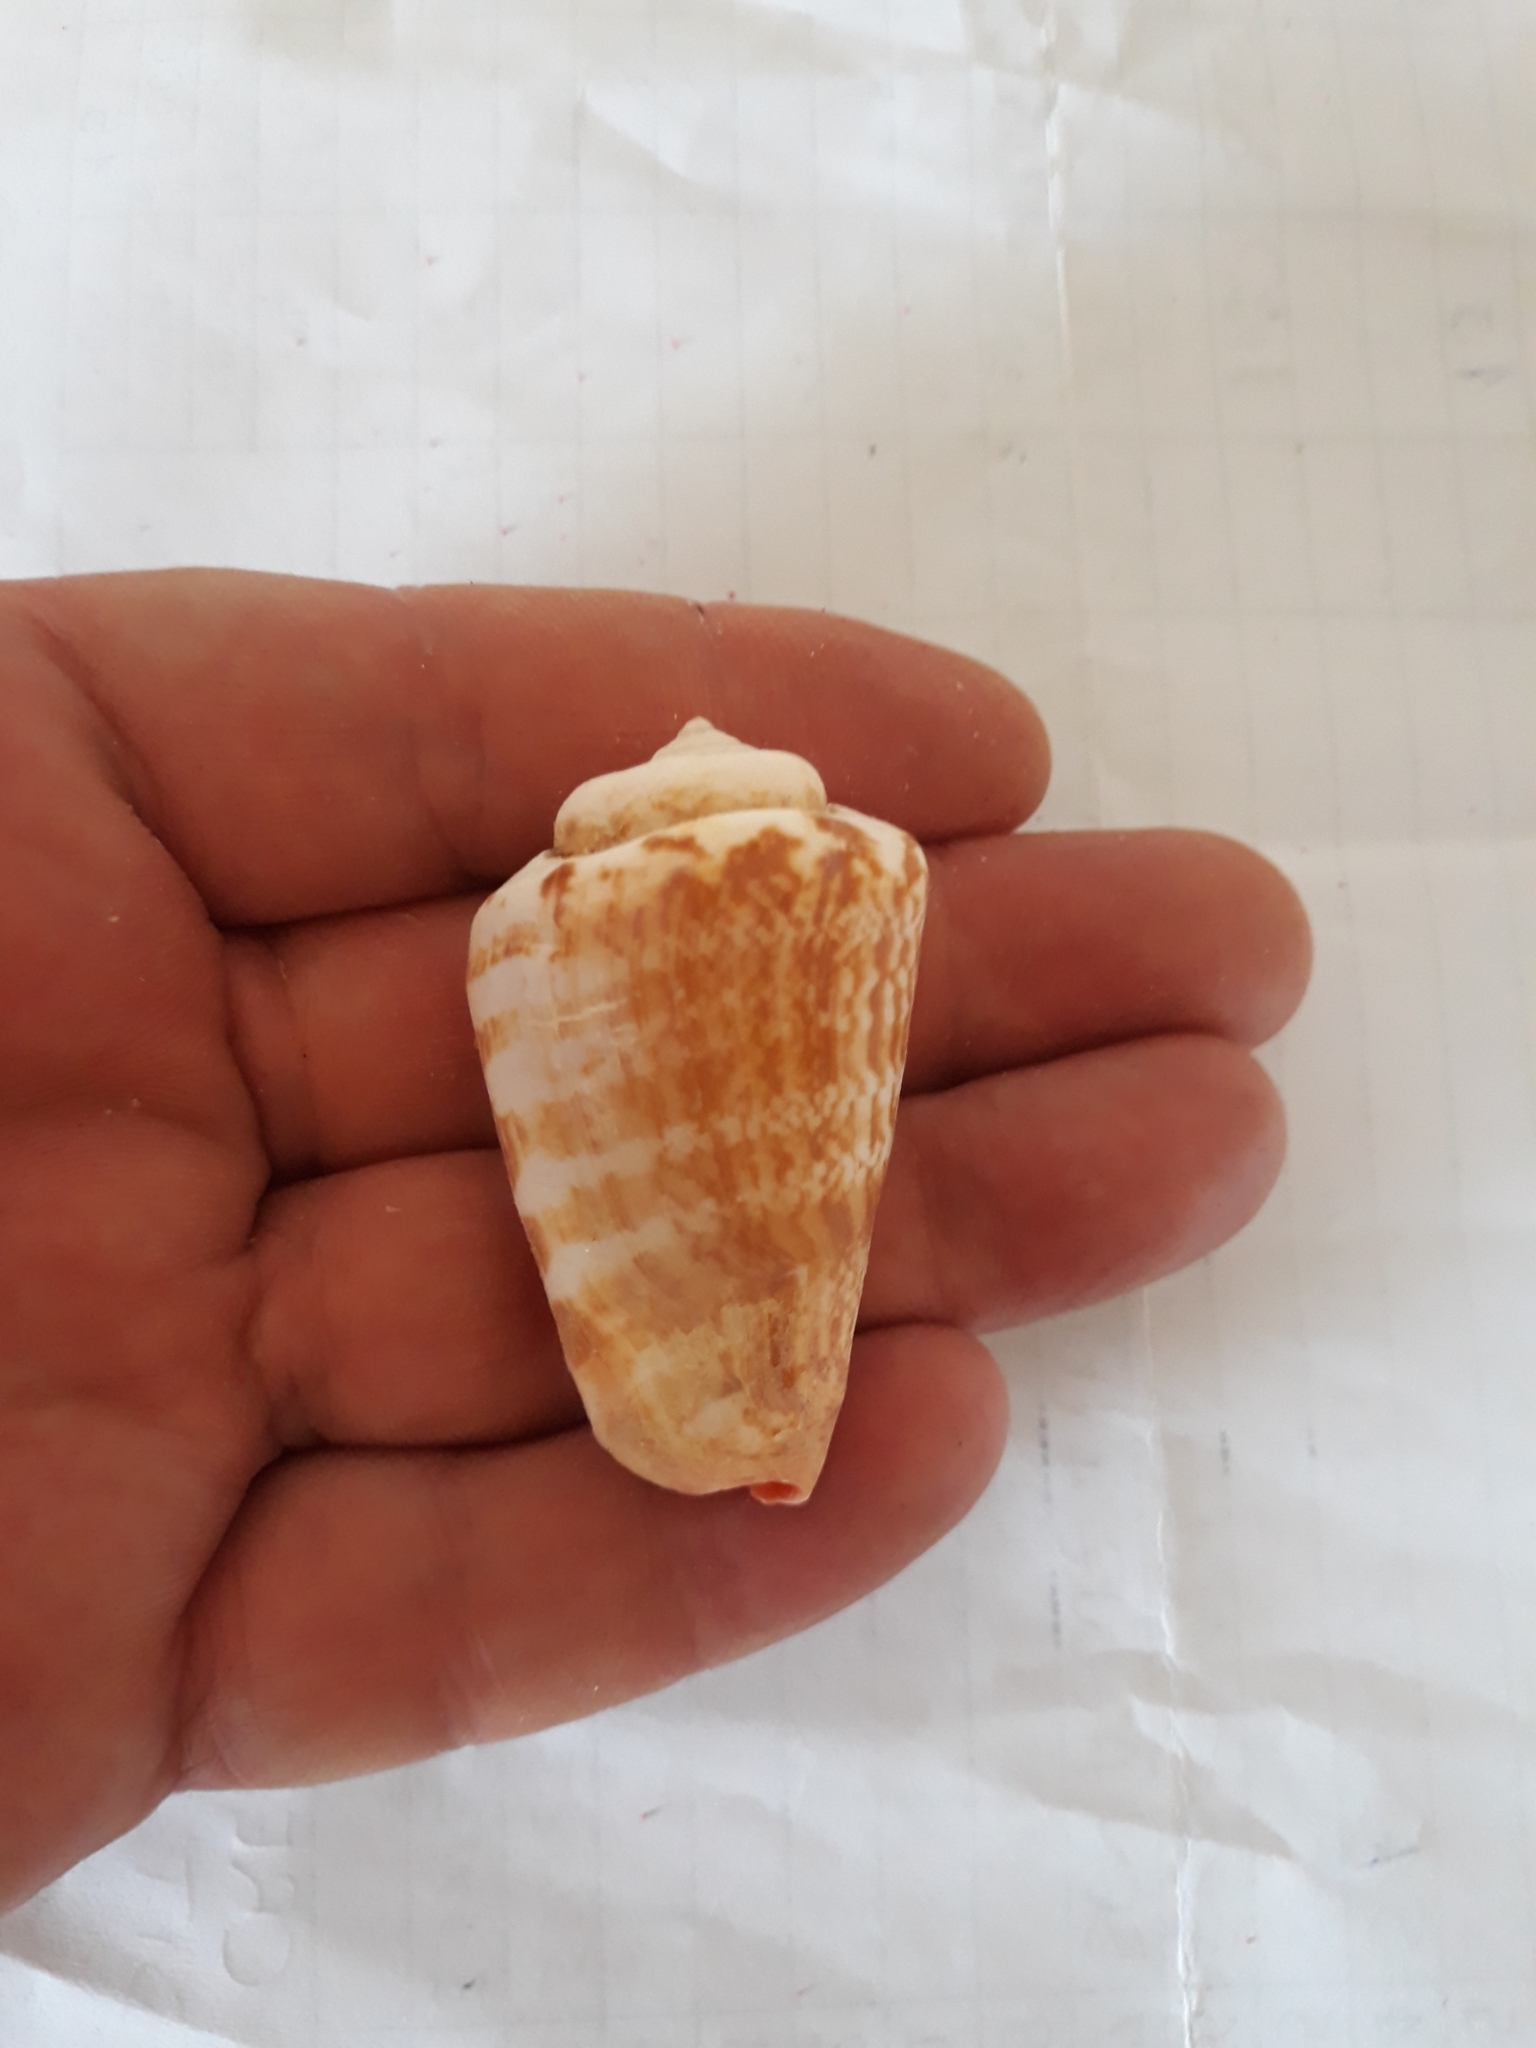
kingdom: Animalia
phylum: Mollusca
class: Gastropoda
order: Littorinimorpha
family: Strombidae
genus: Conomurex
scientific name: Conomurex luhuanus
